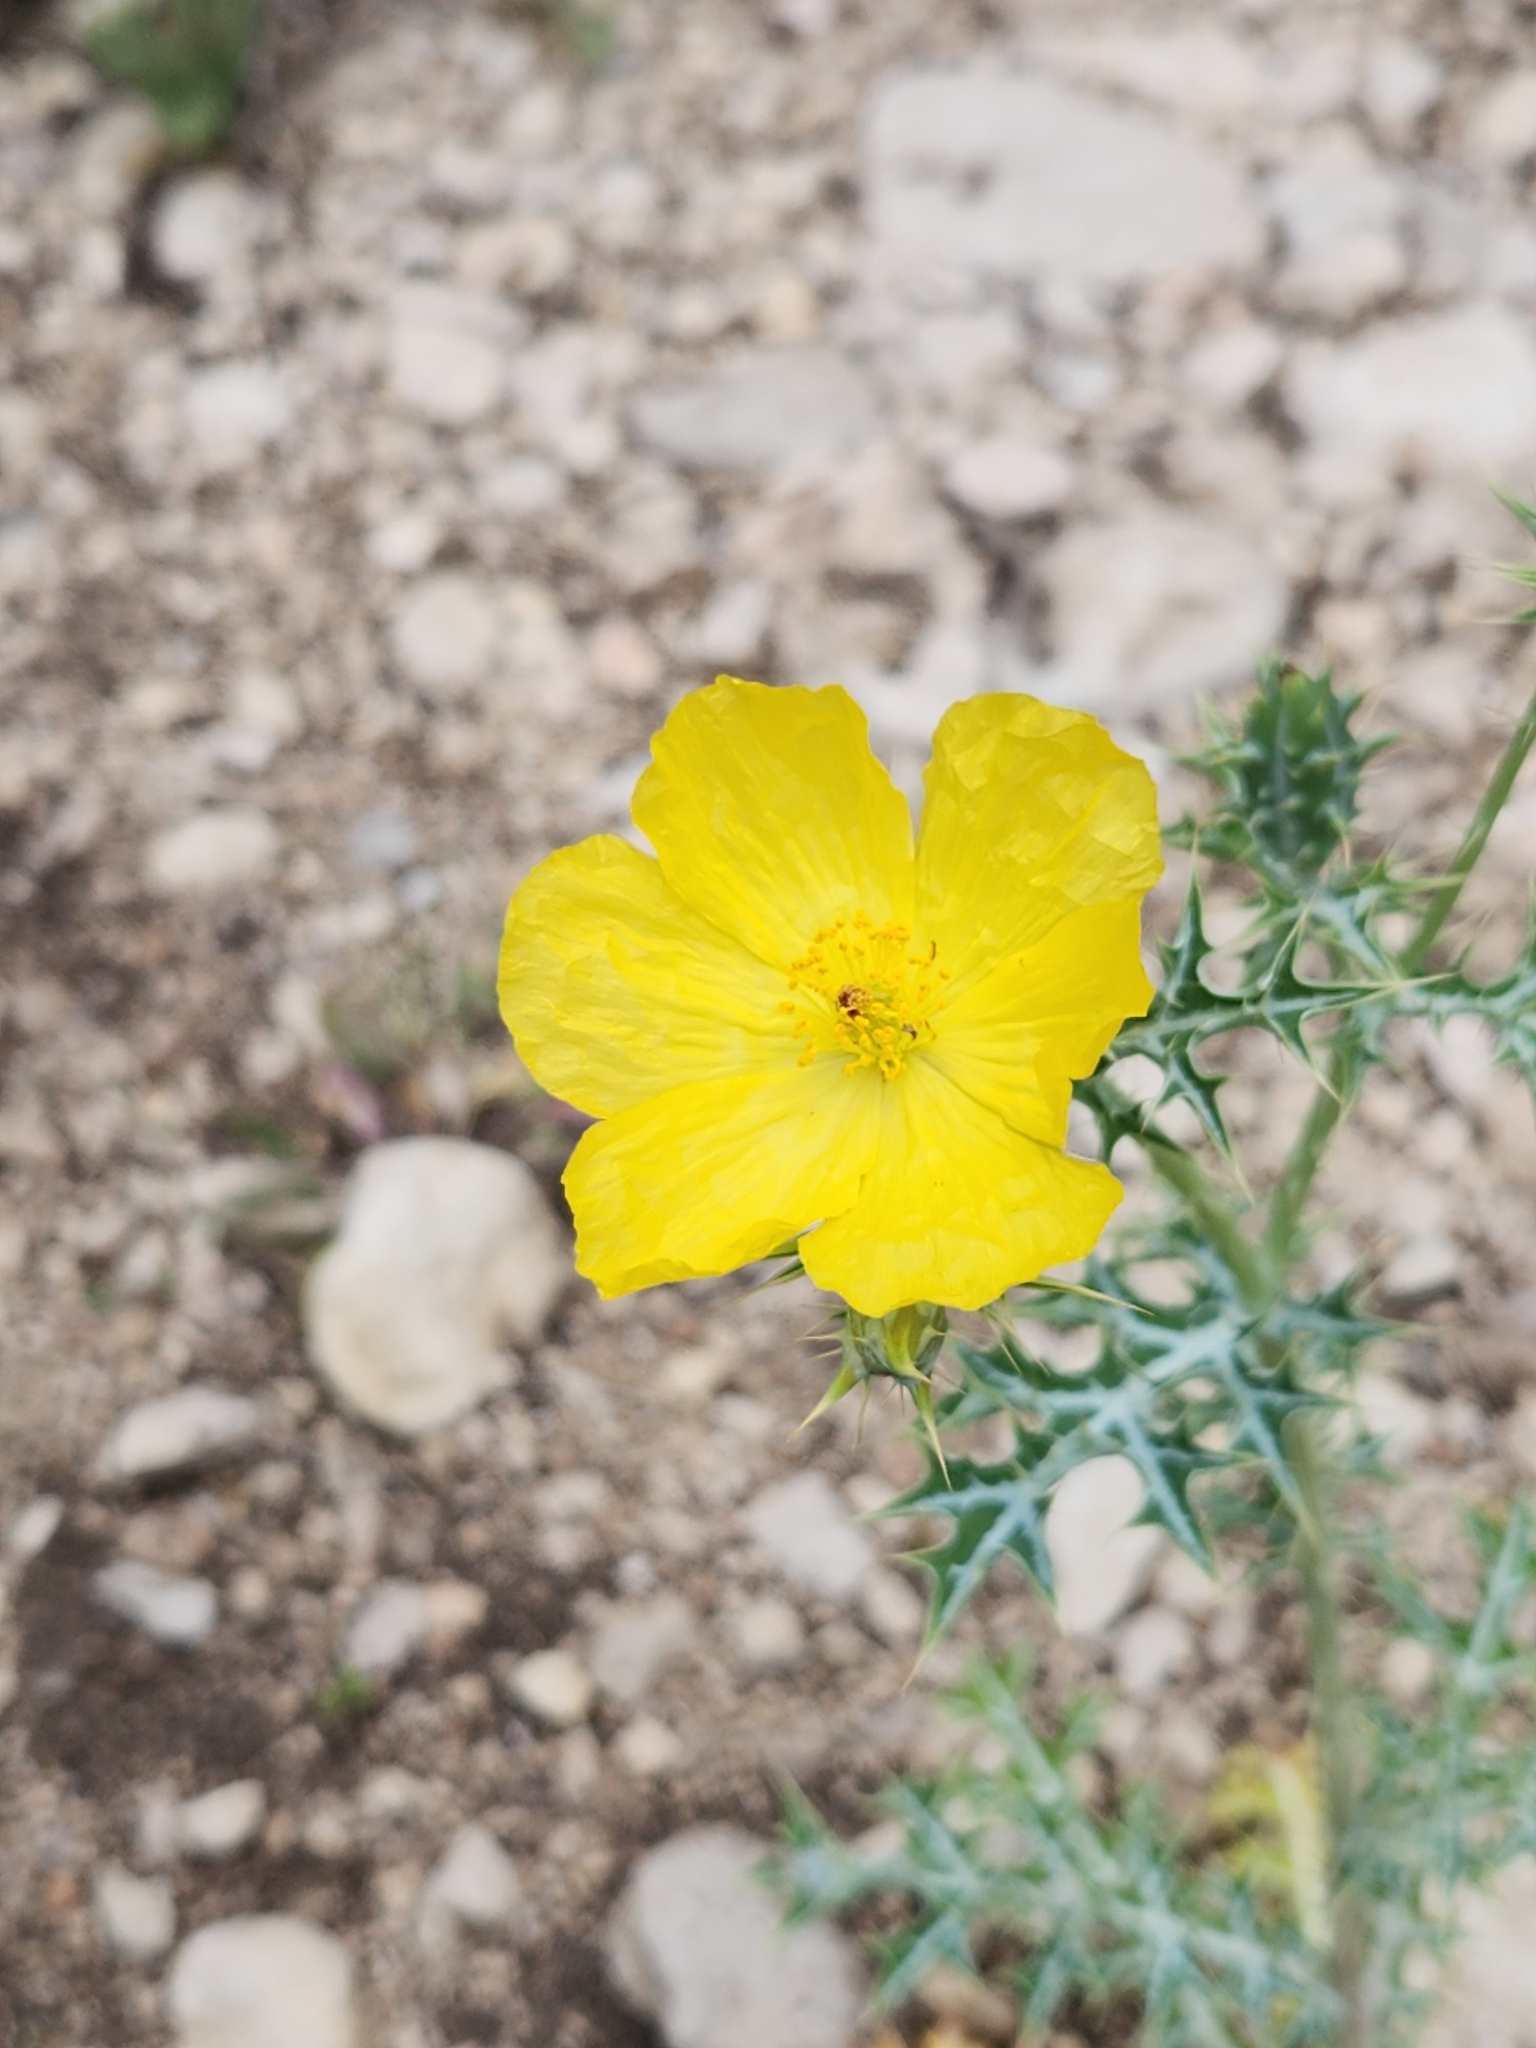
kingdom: Plantae
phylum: Tracheophyta
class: Magnoliopsida
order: Ranunculales
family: Papaveraceae
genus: Argemone
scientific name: Argemone mexicana
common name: Mexican poppy
